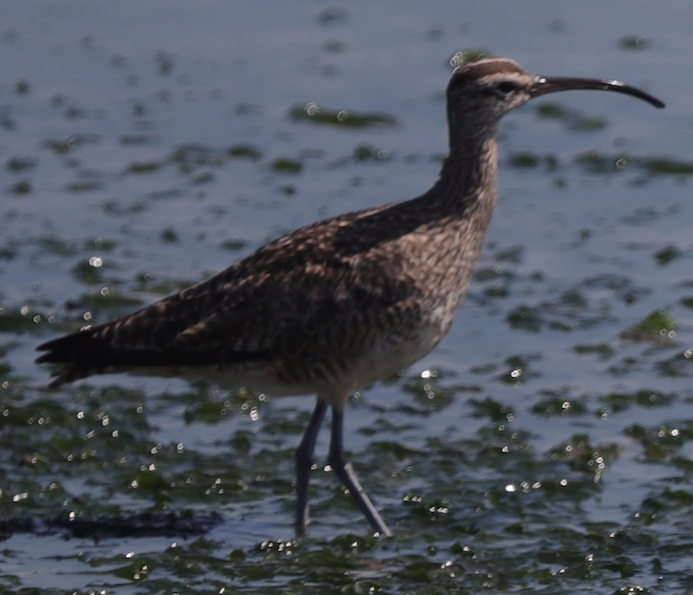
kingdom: Animalia
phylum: Chordata
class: Aves
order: Charadriiformes
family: Scolopacidae
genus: Numenius
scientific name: Numenius phaeopus
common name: Whimbrel
